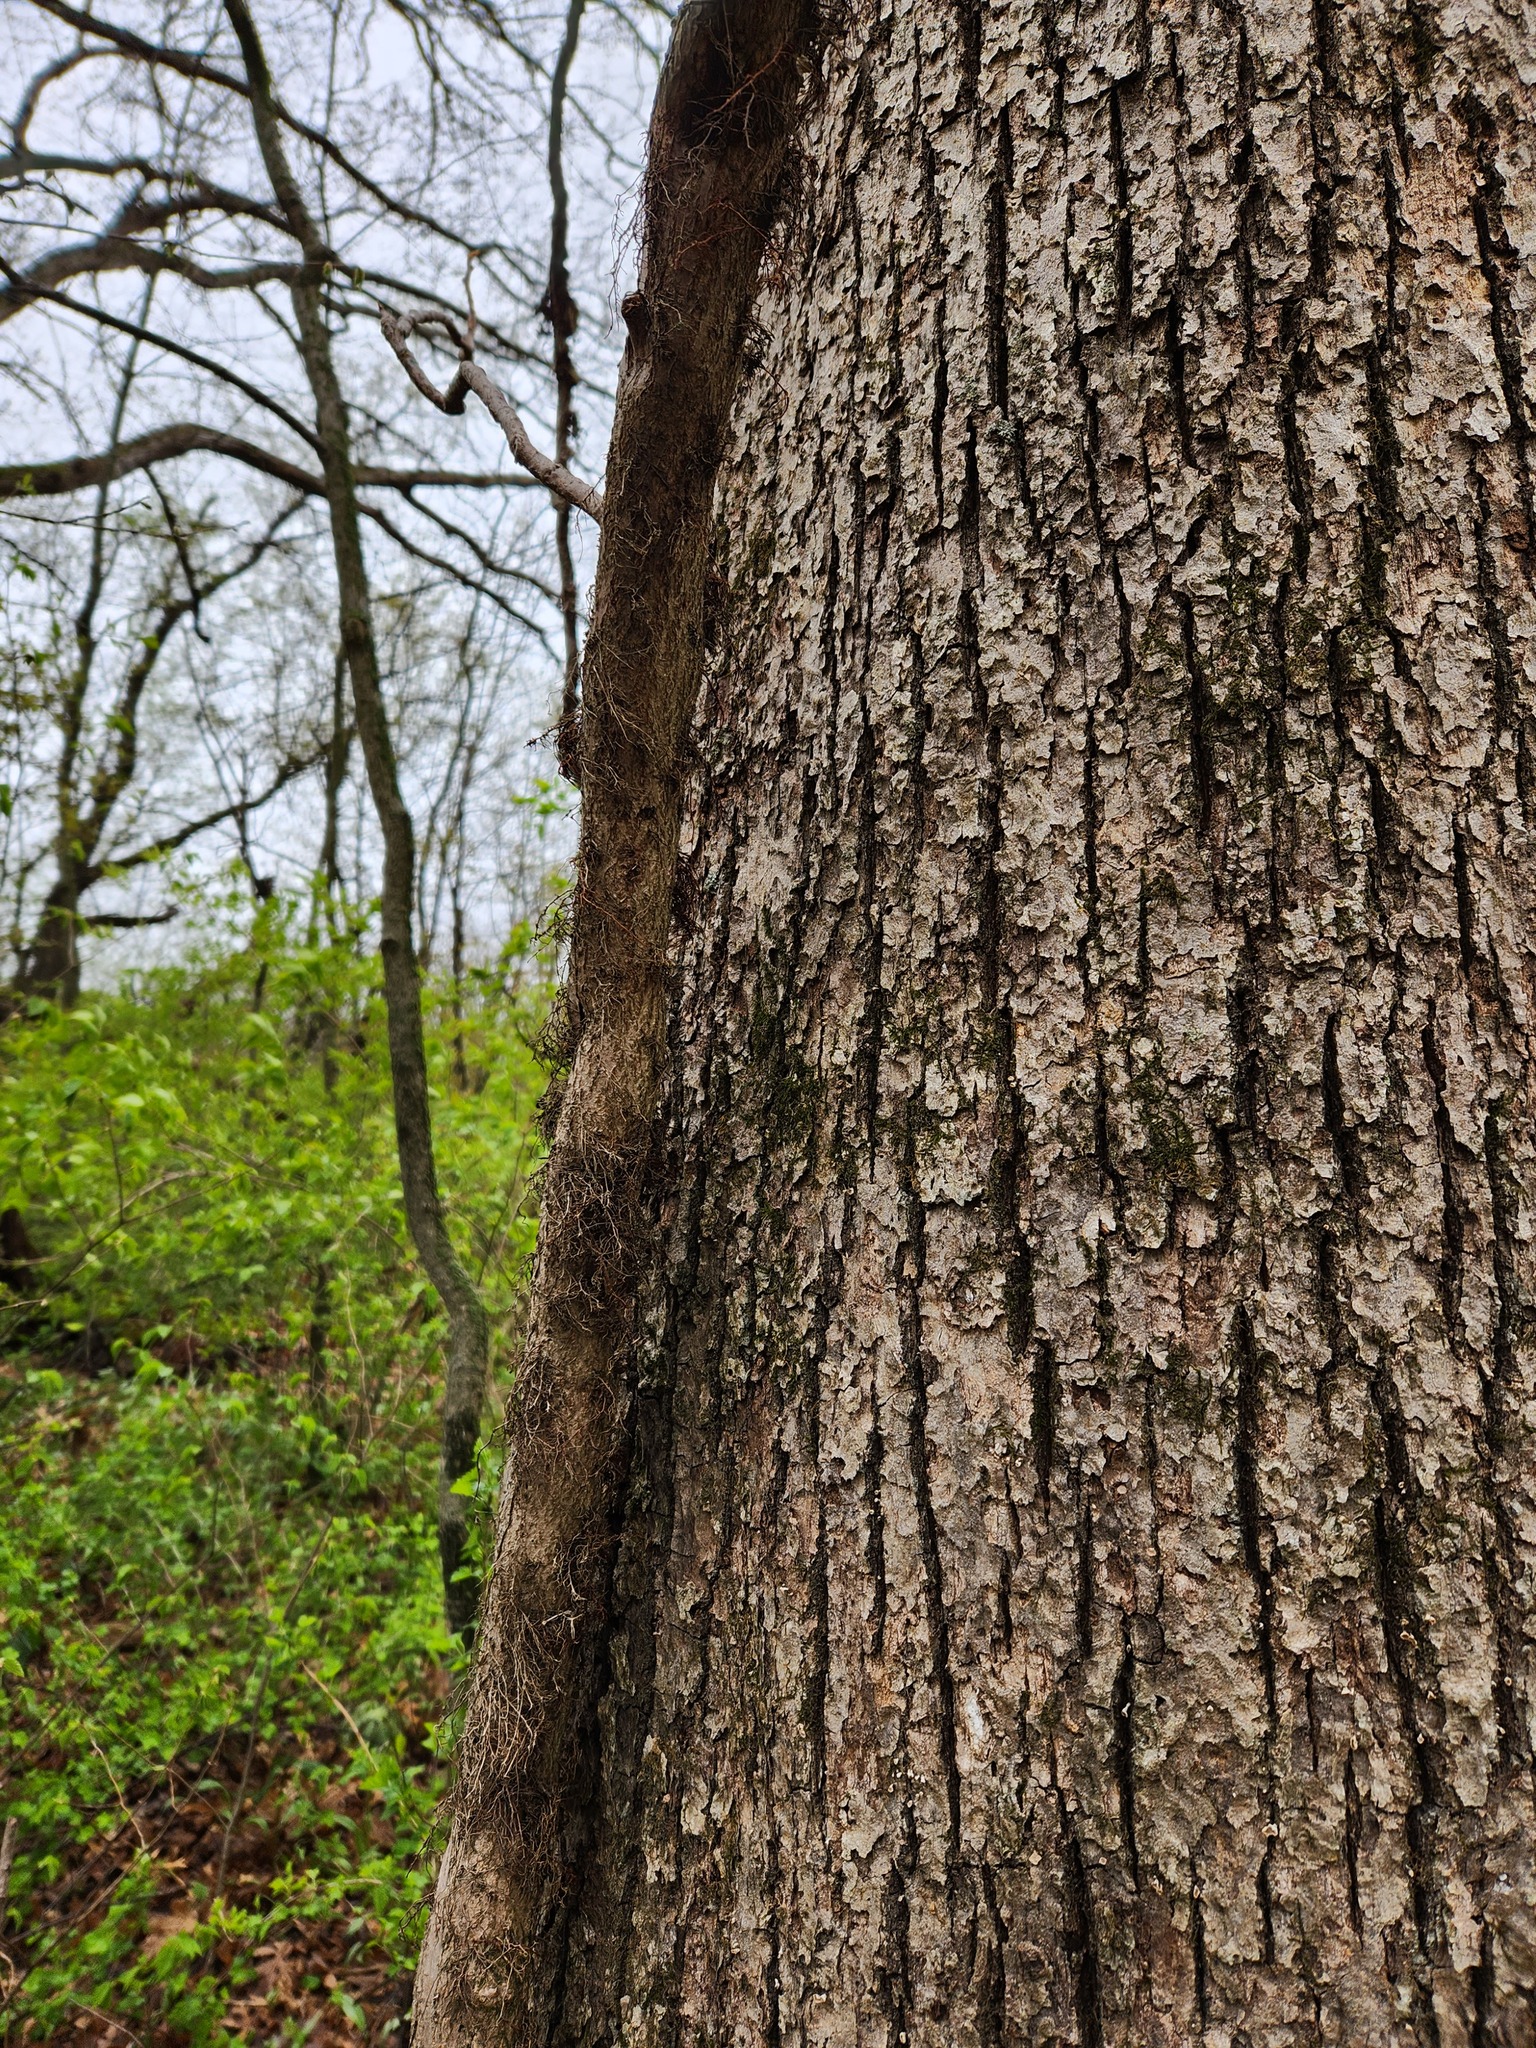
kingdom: Plantae
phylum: Tracheophyta
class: Magnoliopsida
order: Sapindales
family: Anacardiaceae
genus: Toxicodendron
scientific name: Toxicodendron radicans
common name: Poison ivy
